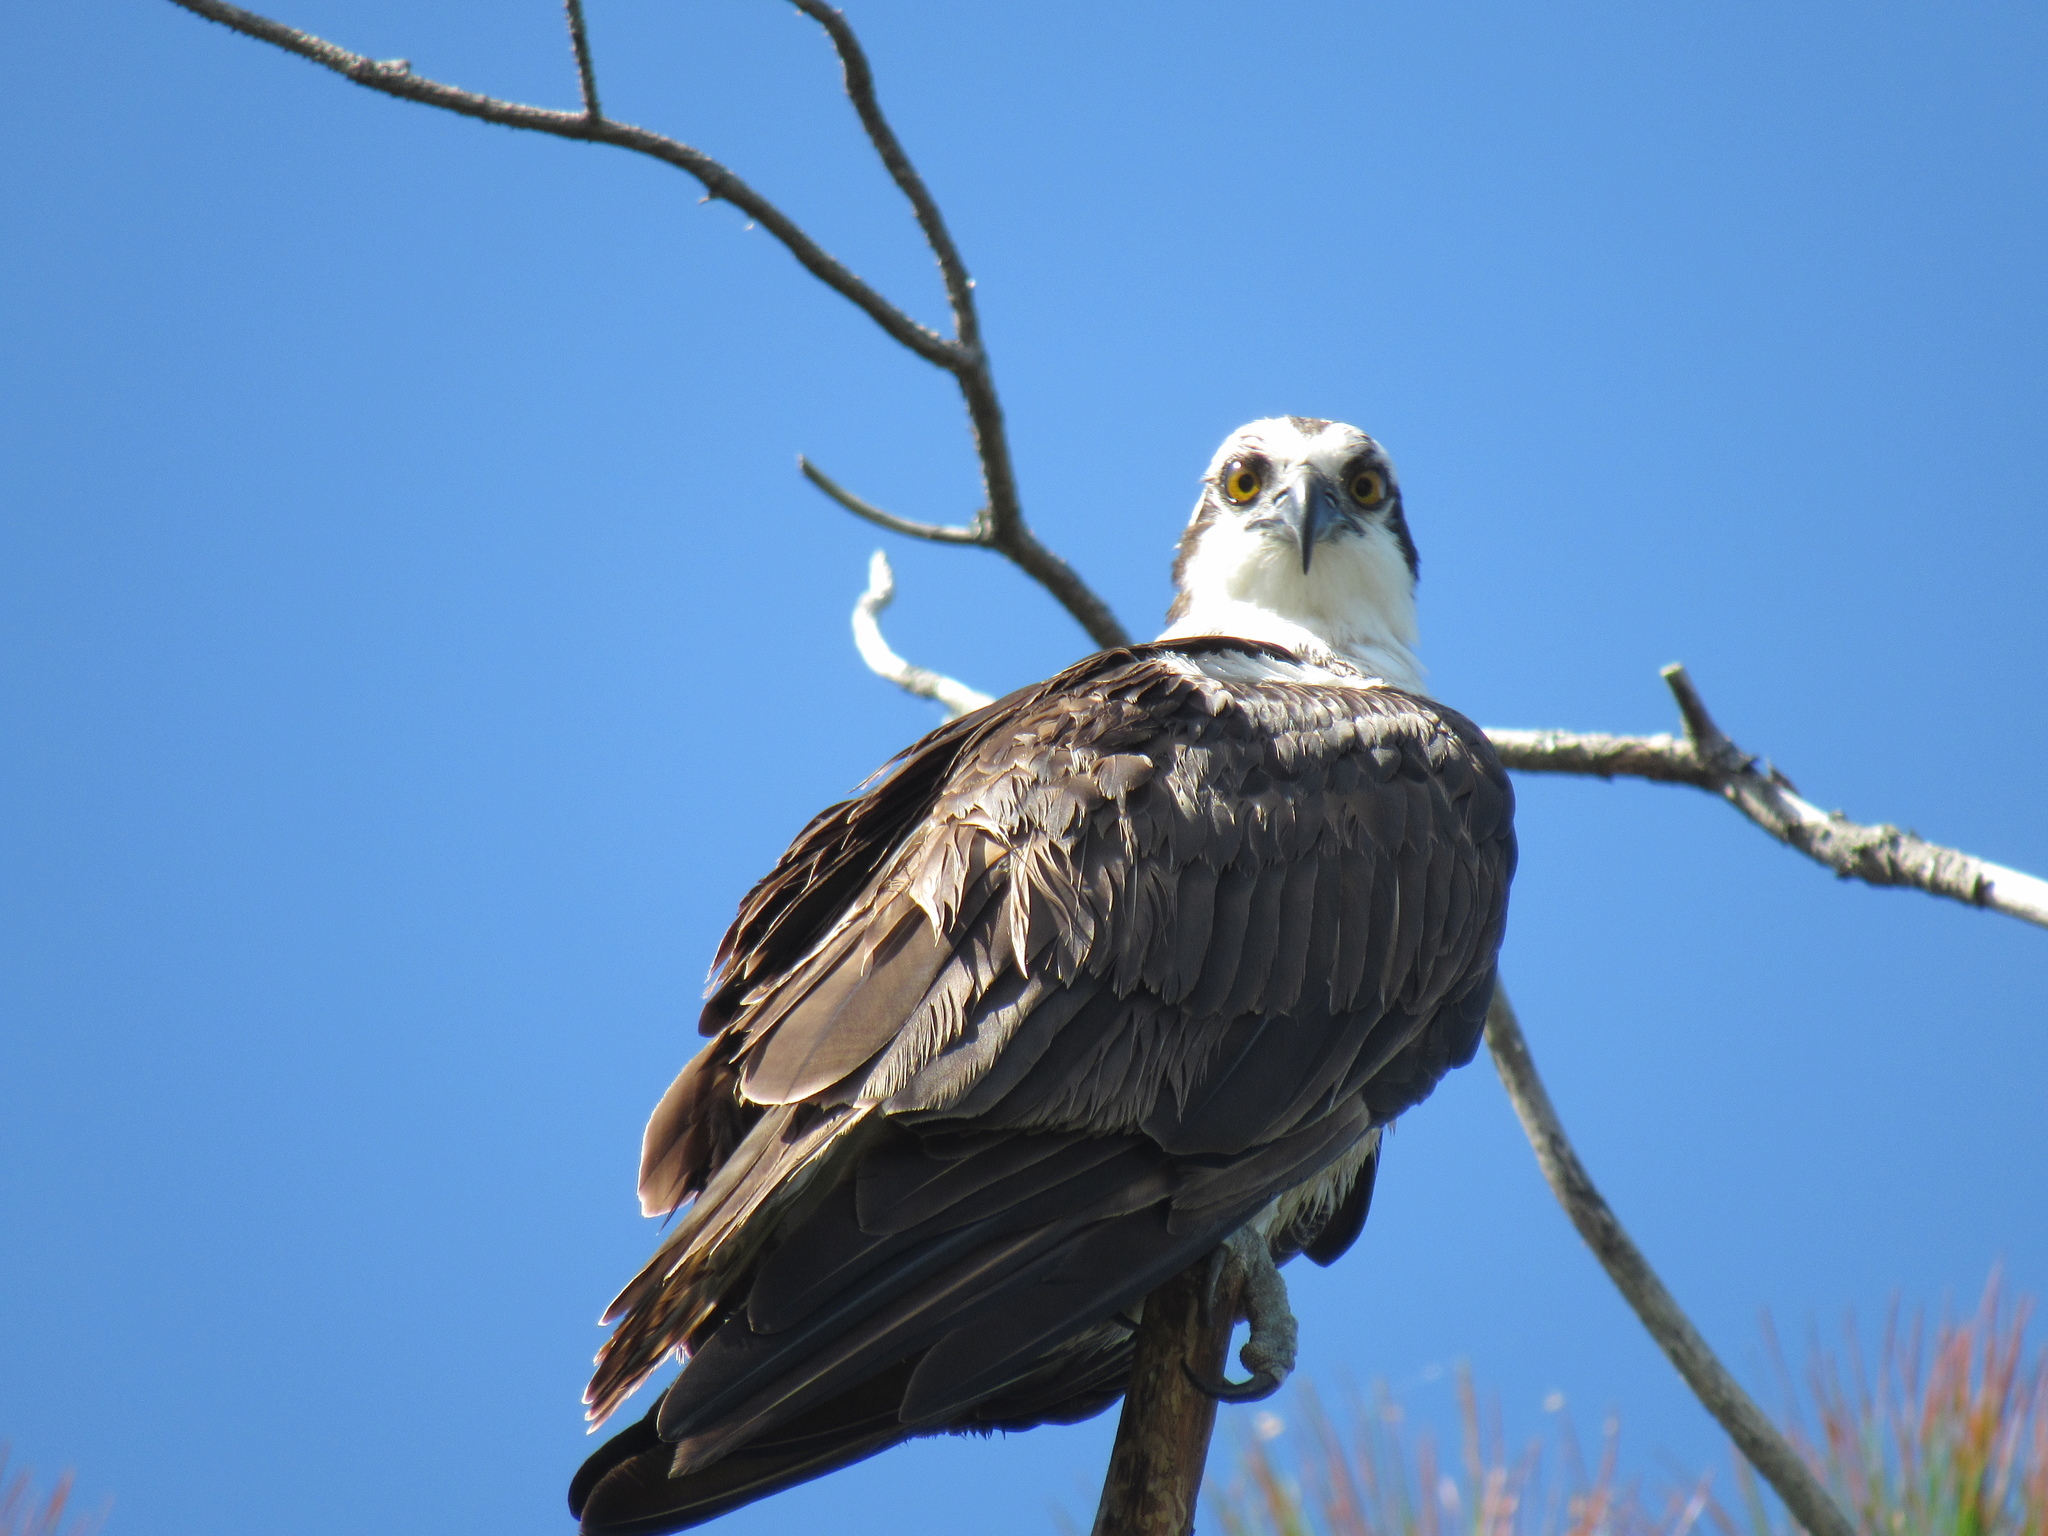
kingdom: Animalia
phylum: Chordata
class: Aves
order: Accipitriformes
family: Pandionidae
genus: Pandion
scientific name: Pandion haliaetus
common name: Osprey
